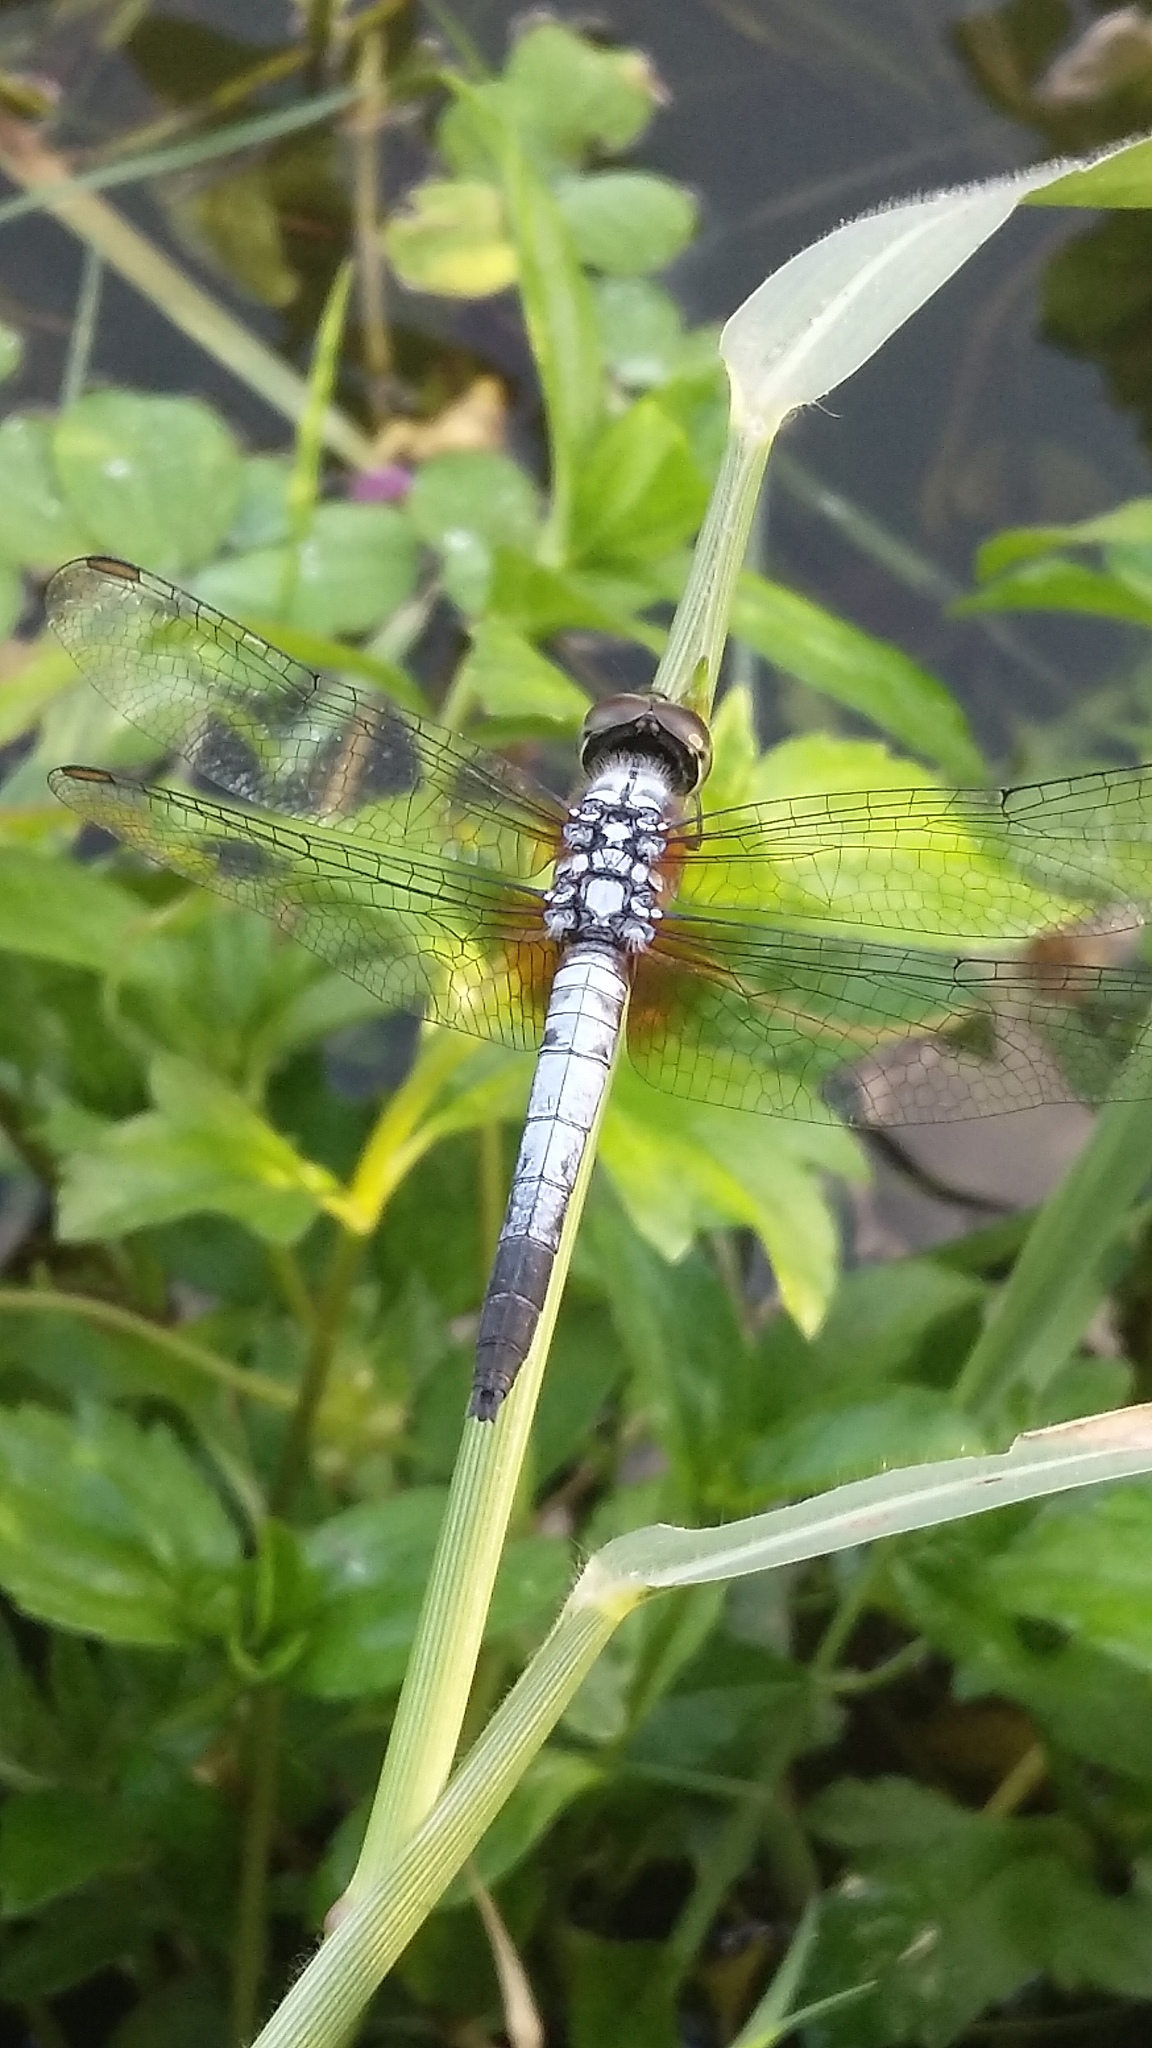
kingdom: Animalia
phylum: Arthropoda
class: Insecta
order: Odonata
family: Libellulidae
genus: Brachydiplax
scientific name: Brachydiplax chalybea
